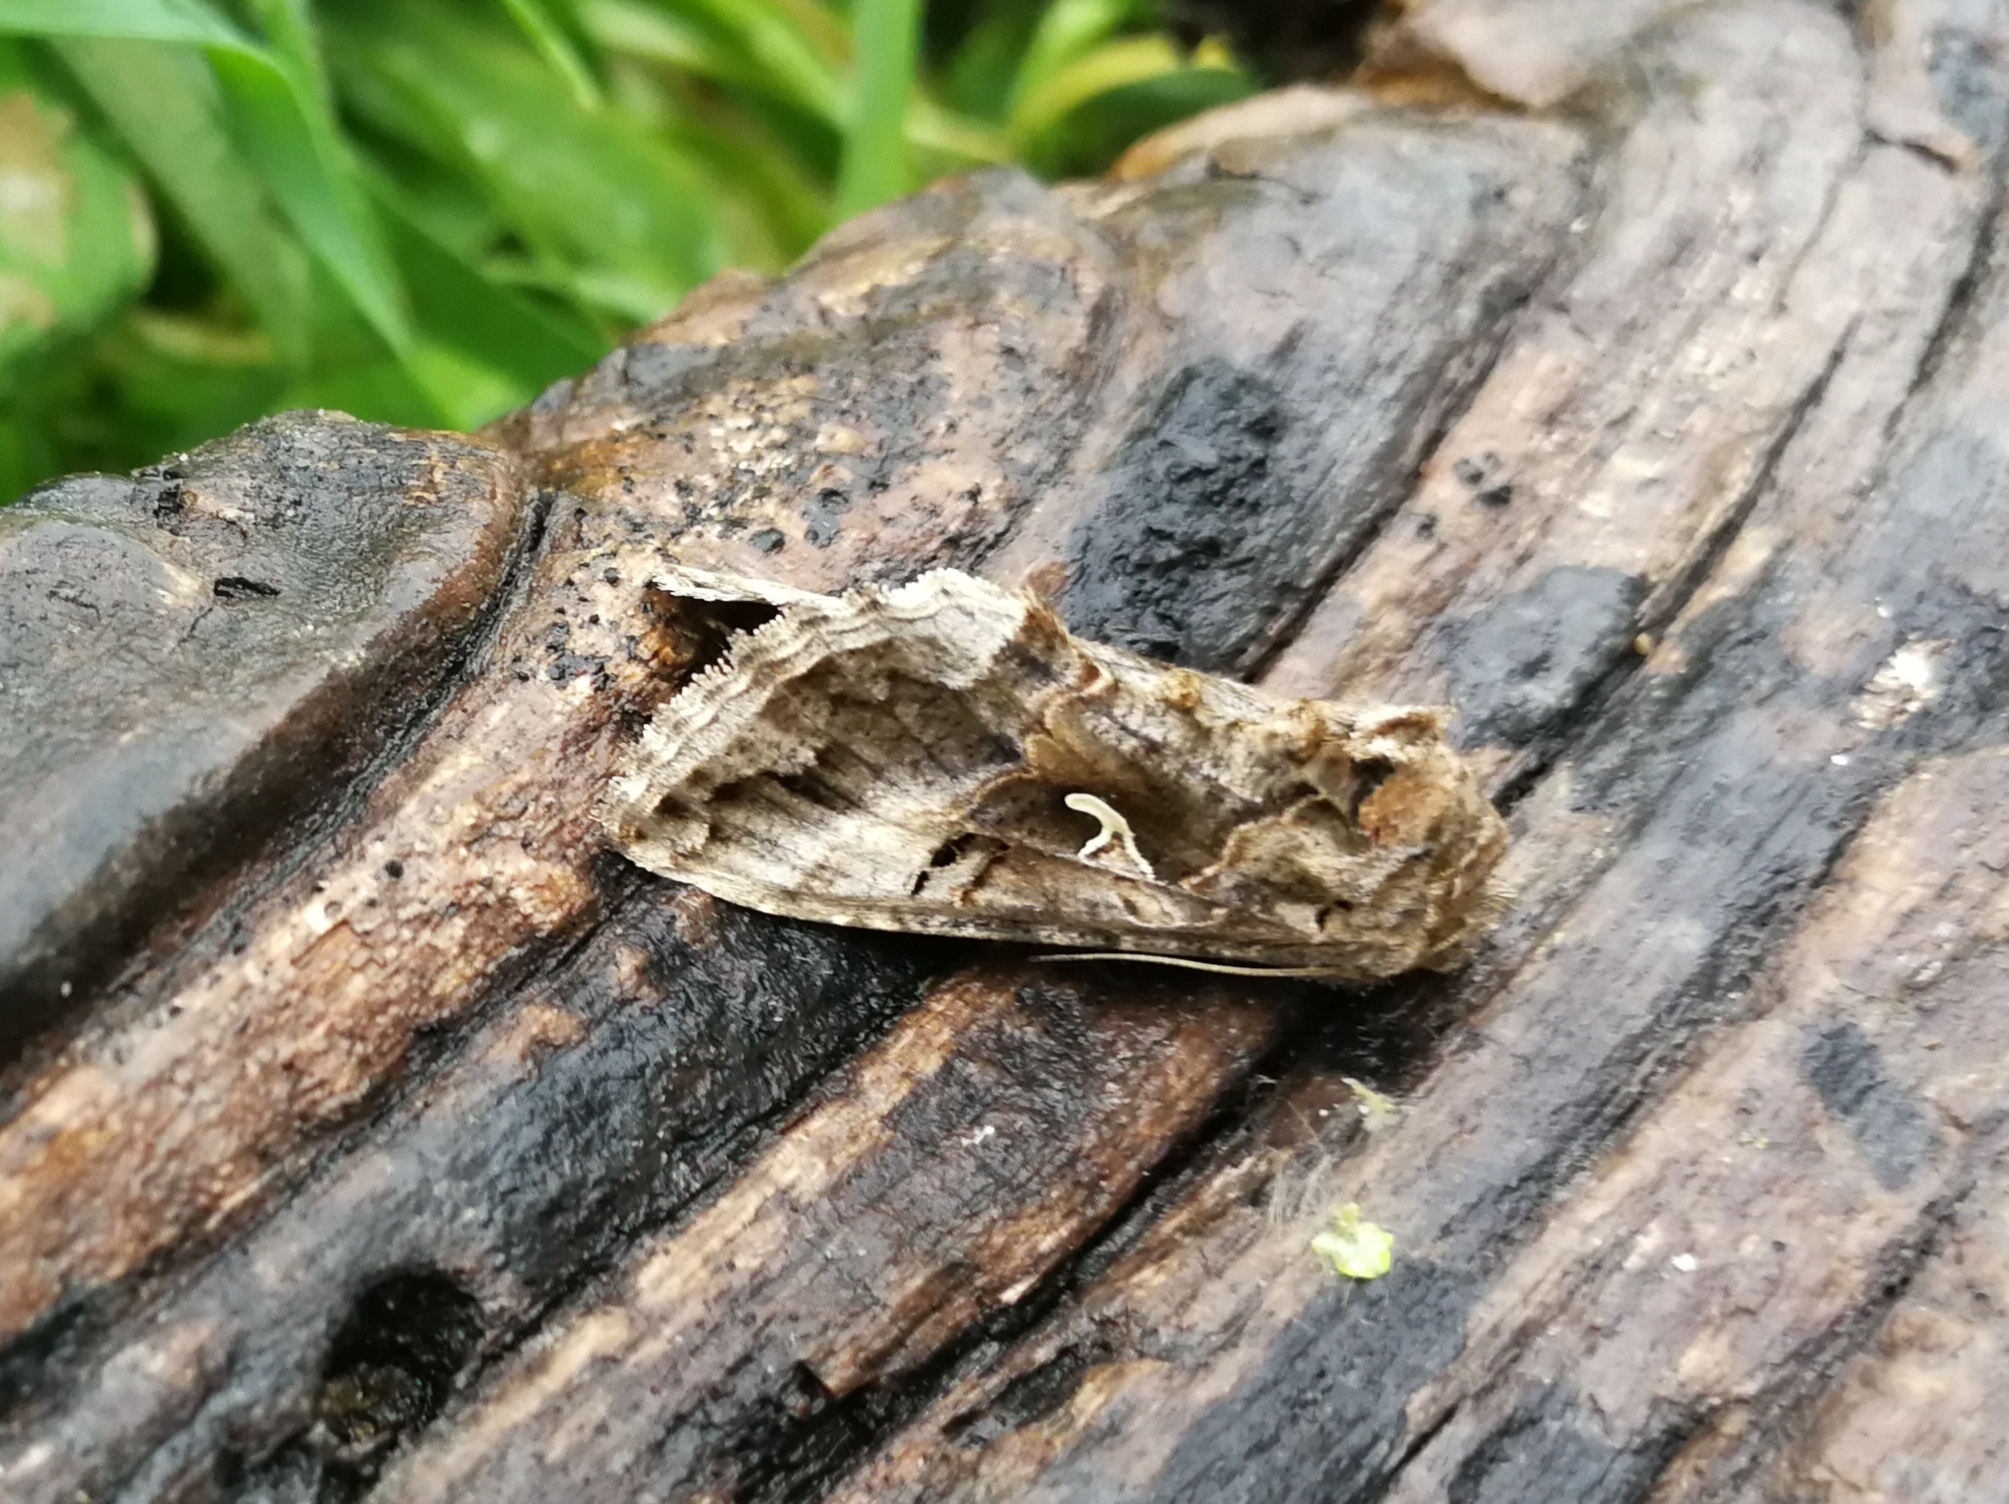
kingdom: Animalia
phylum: Arthropoda
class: Insecta
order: Lepidoptera
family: Noctuidae
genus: Autographa
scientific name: Autographa gamma
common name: Silver y
